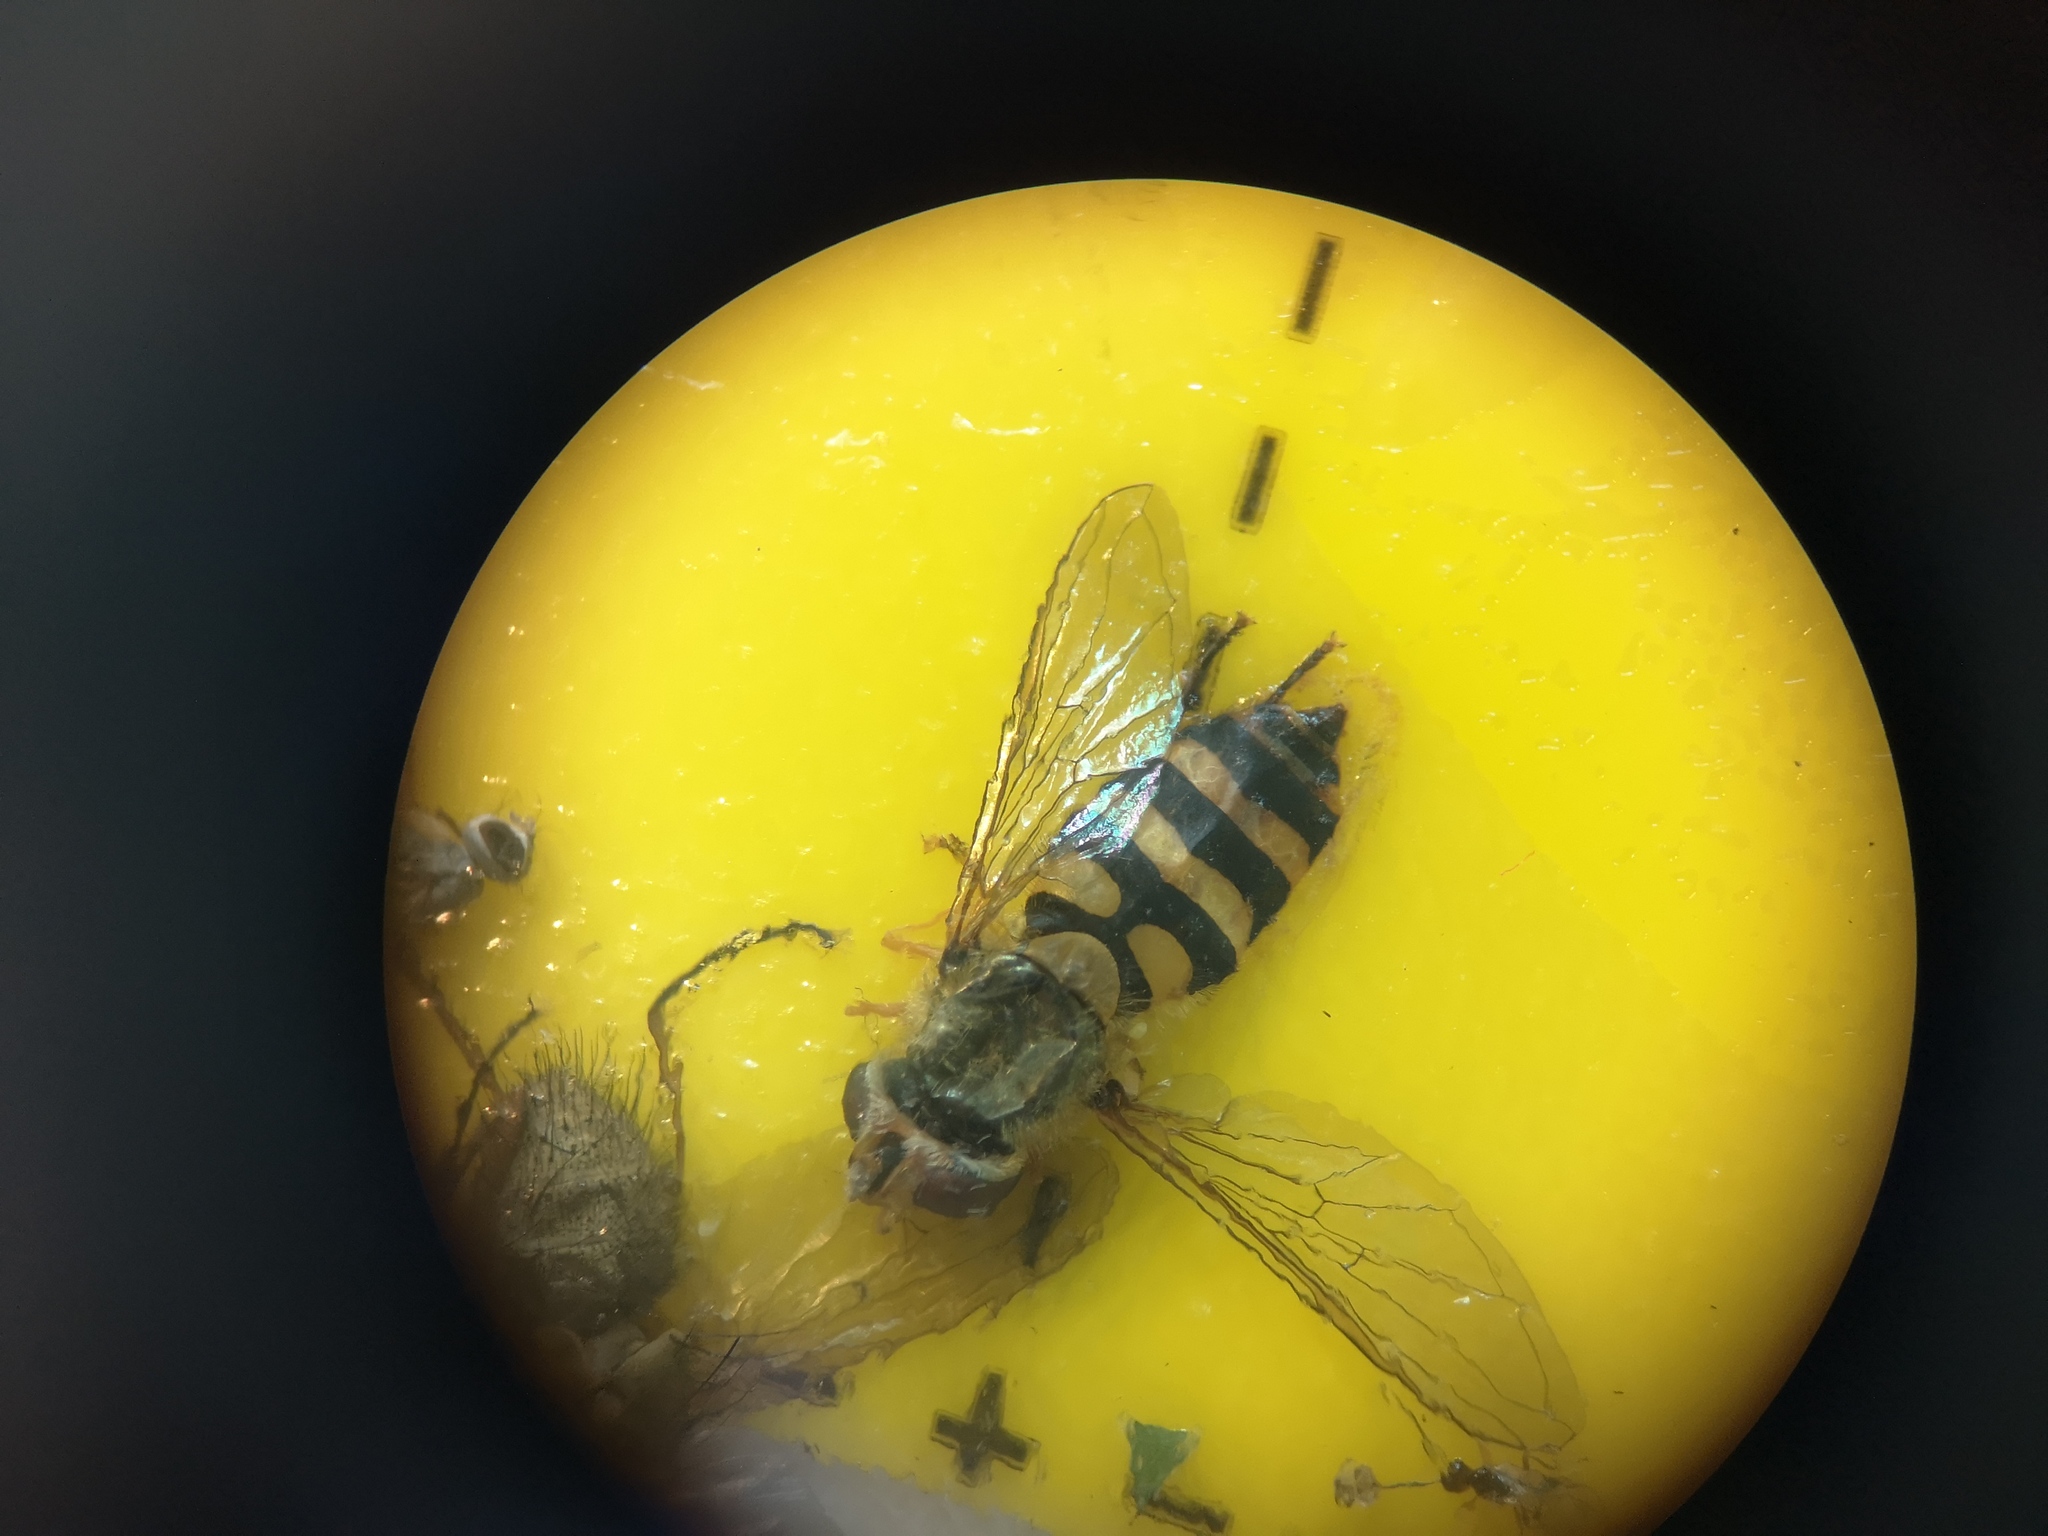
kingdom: Animalia
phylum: Arthropoda
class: Insecta
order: Diptera
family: Syrphidae
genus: Syrphus
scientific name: Syrphus
